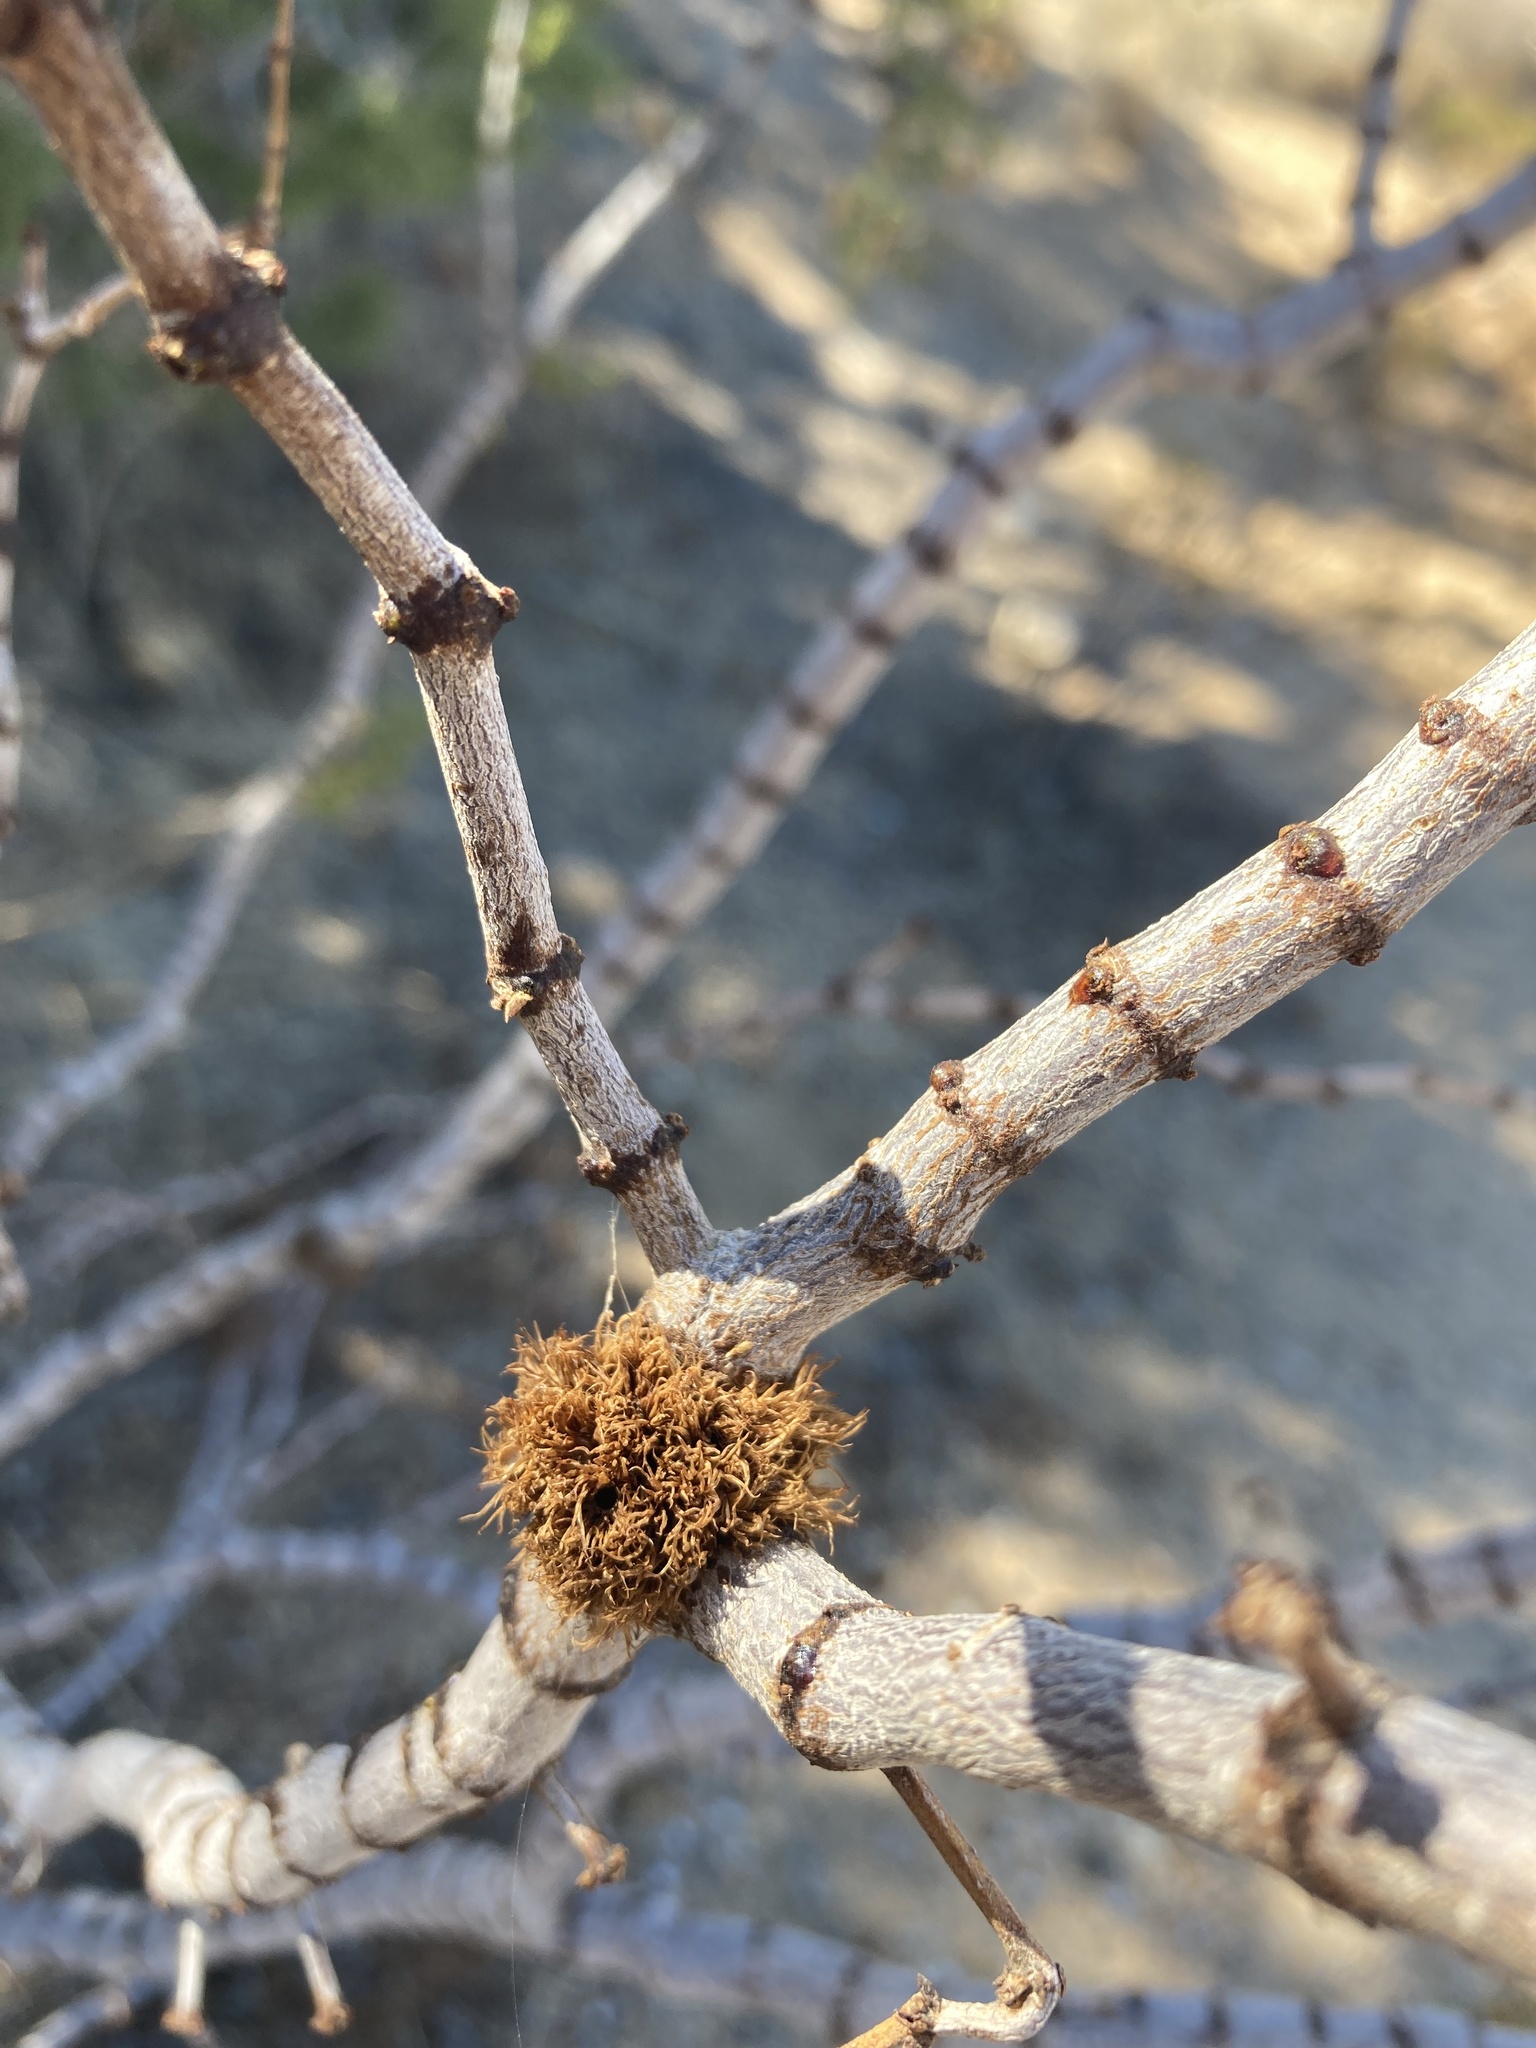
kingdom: Animalia
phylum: Arthropoda
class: Insecta
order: Diptera
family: Cecidomyiidae
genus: Asphondylia
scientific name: Asphondylia auripila
